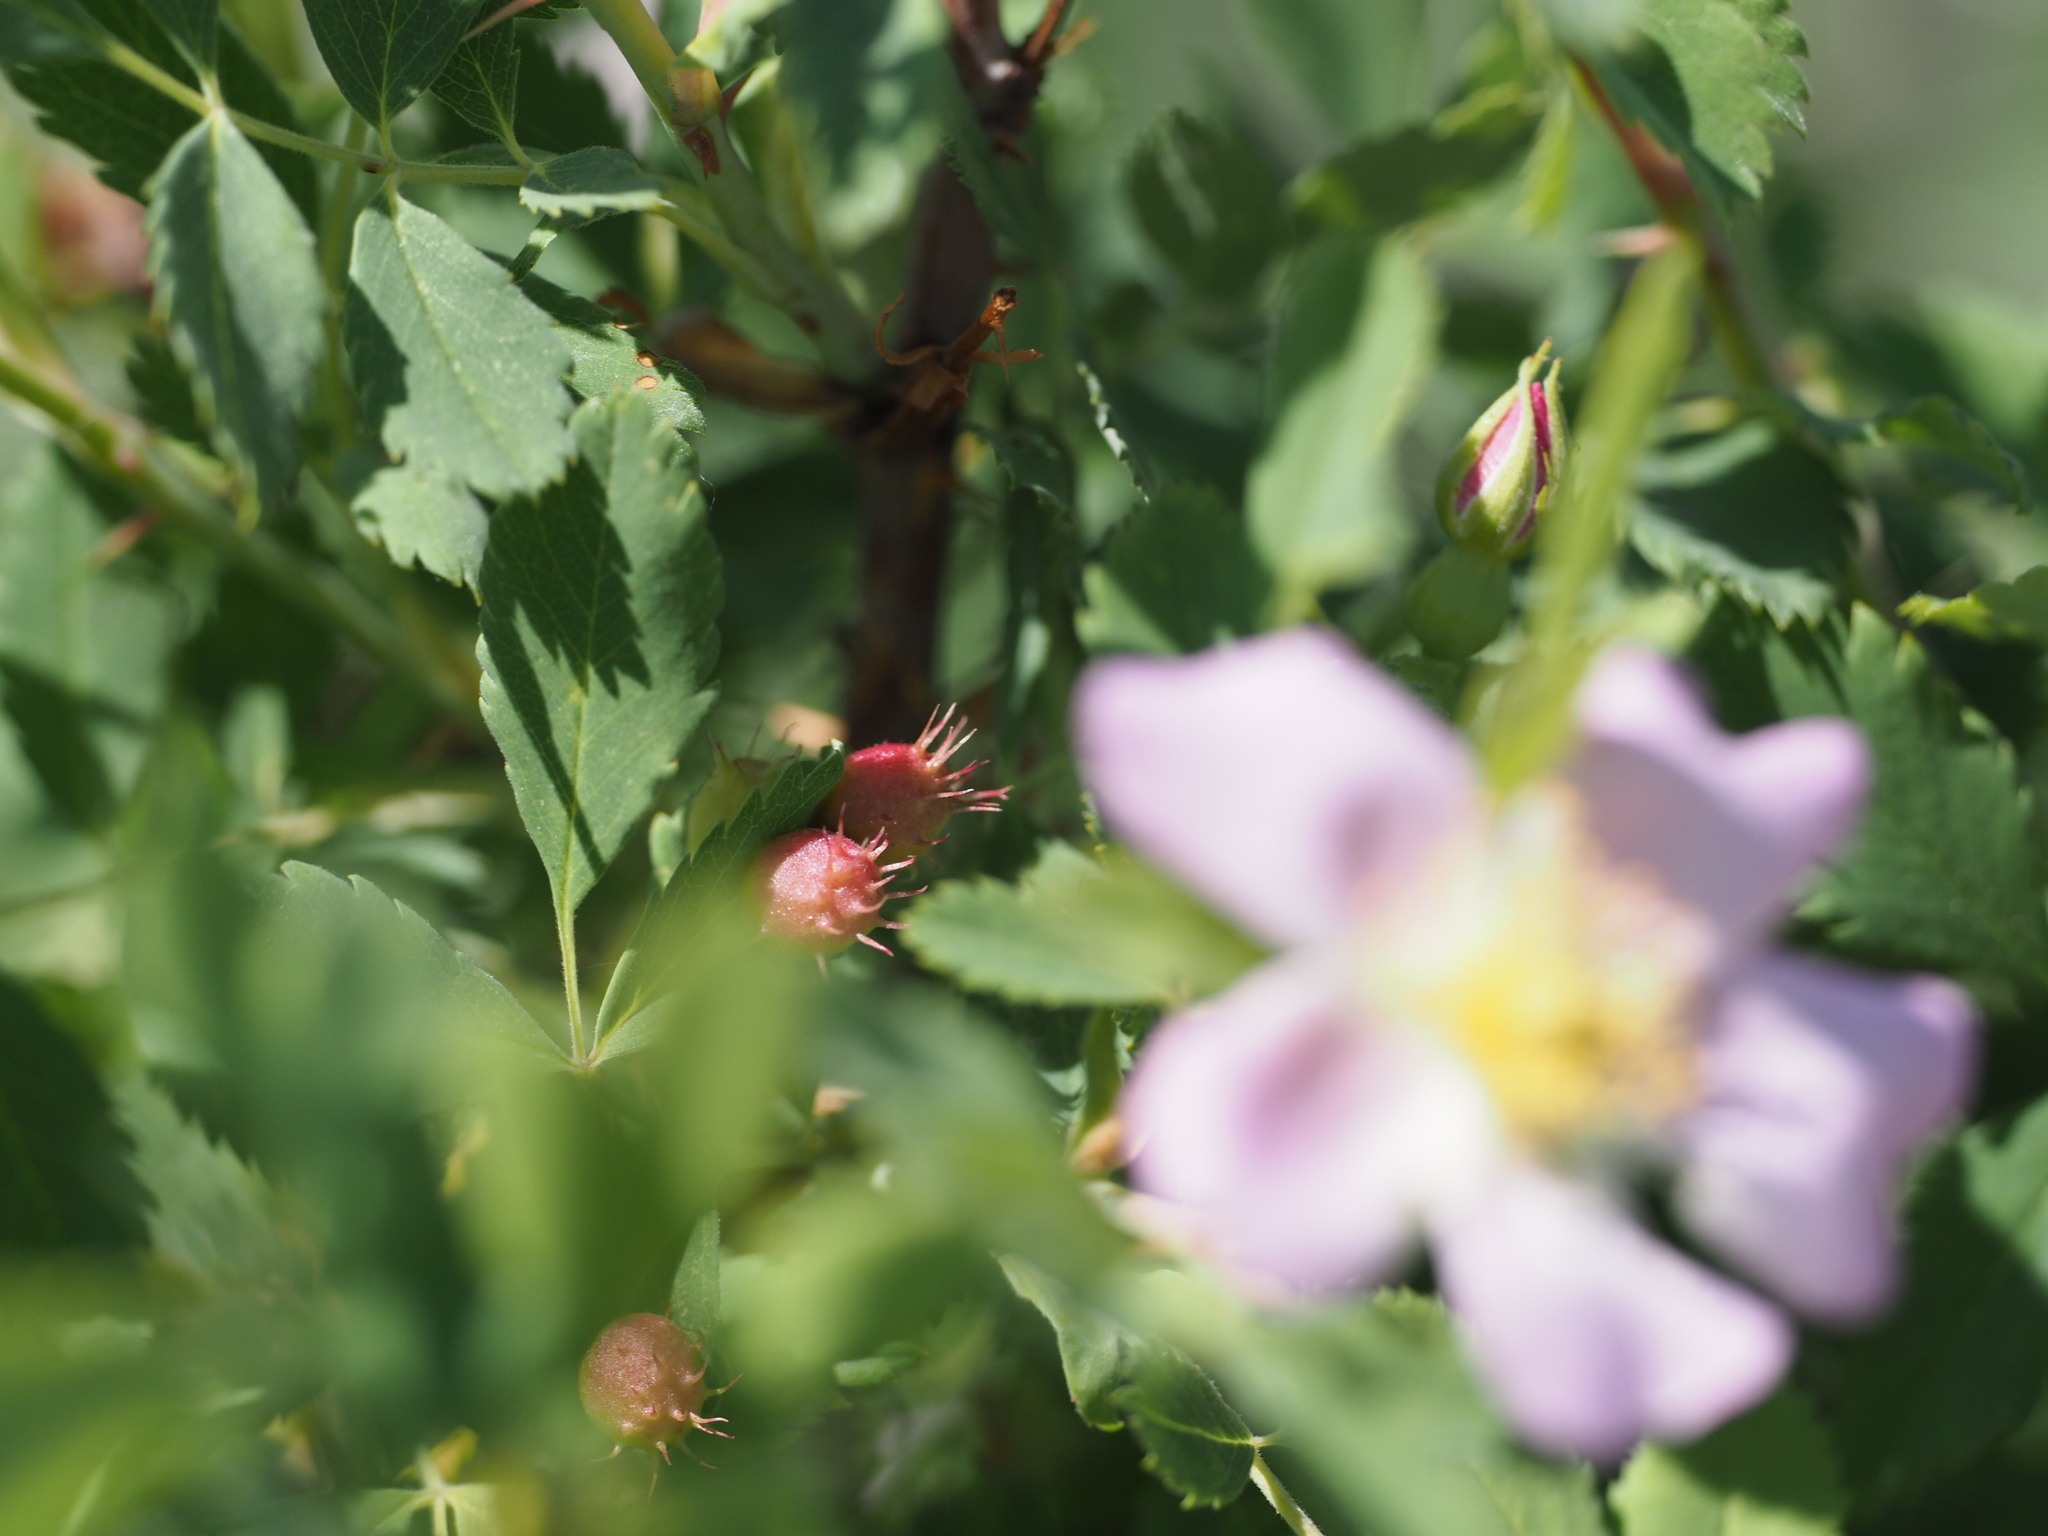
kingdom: Animalia
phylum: Arthropoda
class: Insecta
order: Hymenoptera
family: Cynipidae
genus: Diplolepis
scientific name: Diplolepis polita
